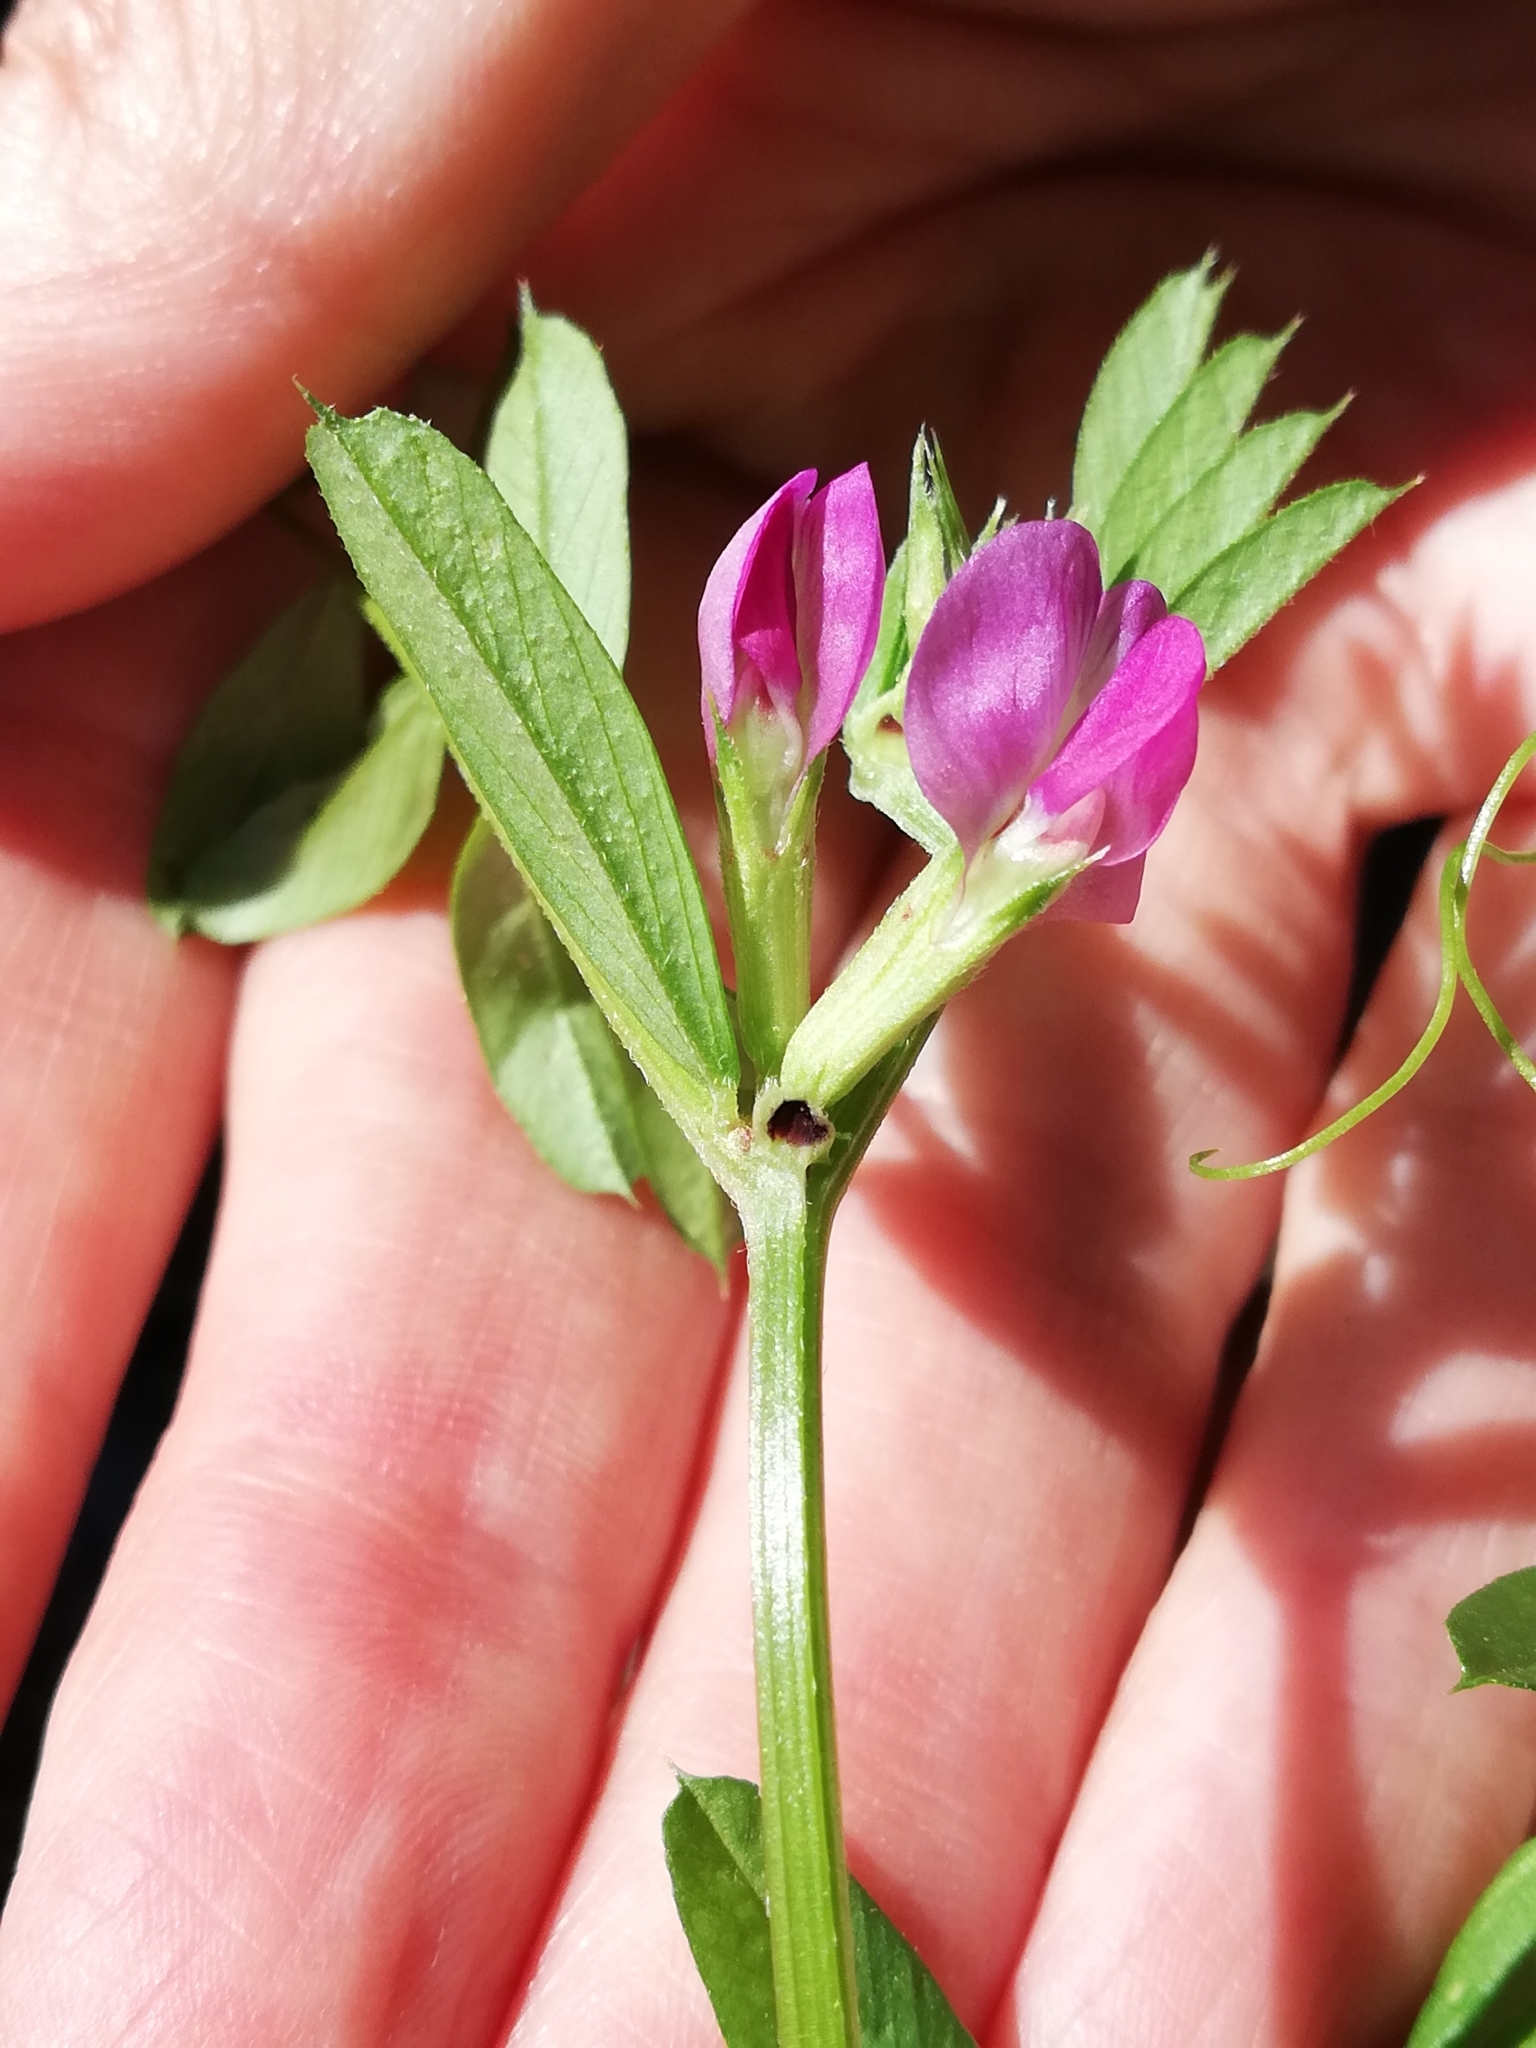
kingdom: Plantae
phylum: Tracheophyta
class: Magnoliopsida
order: Fabales
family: Fabaceae
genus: Vicia
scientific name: Vicia sativa
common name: Garden vetch
